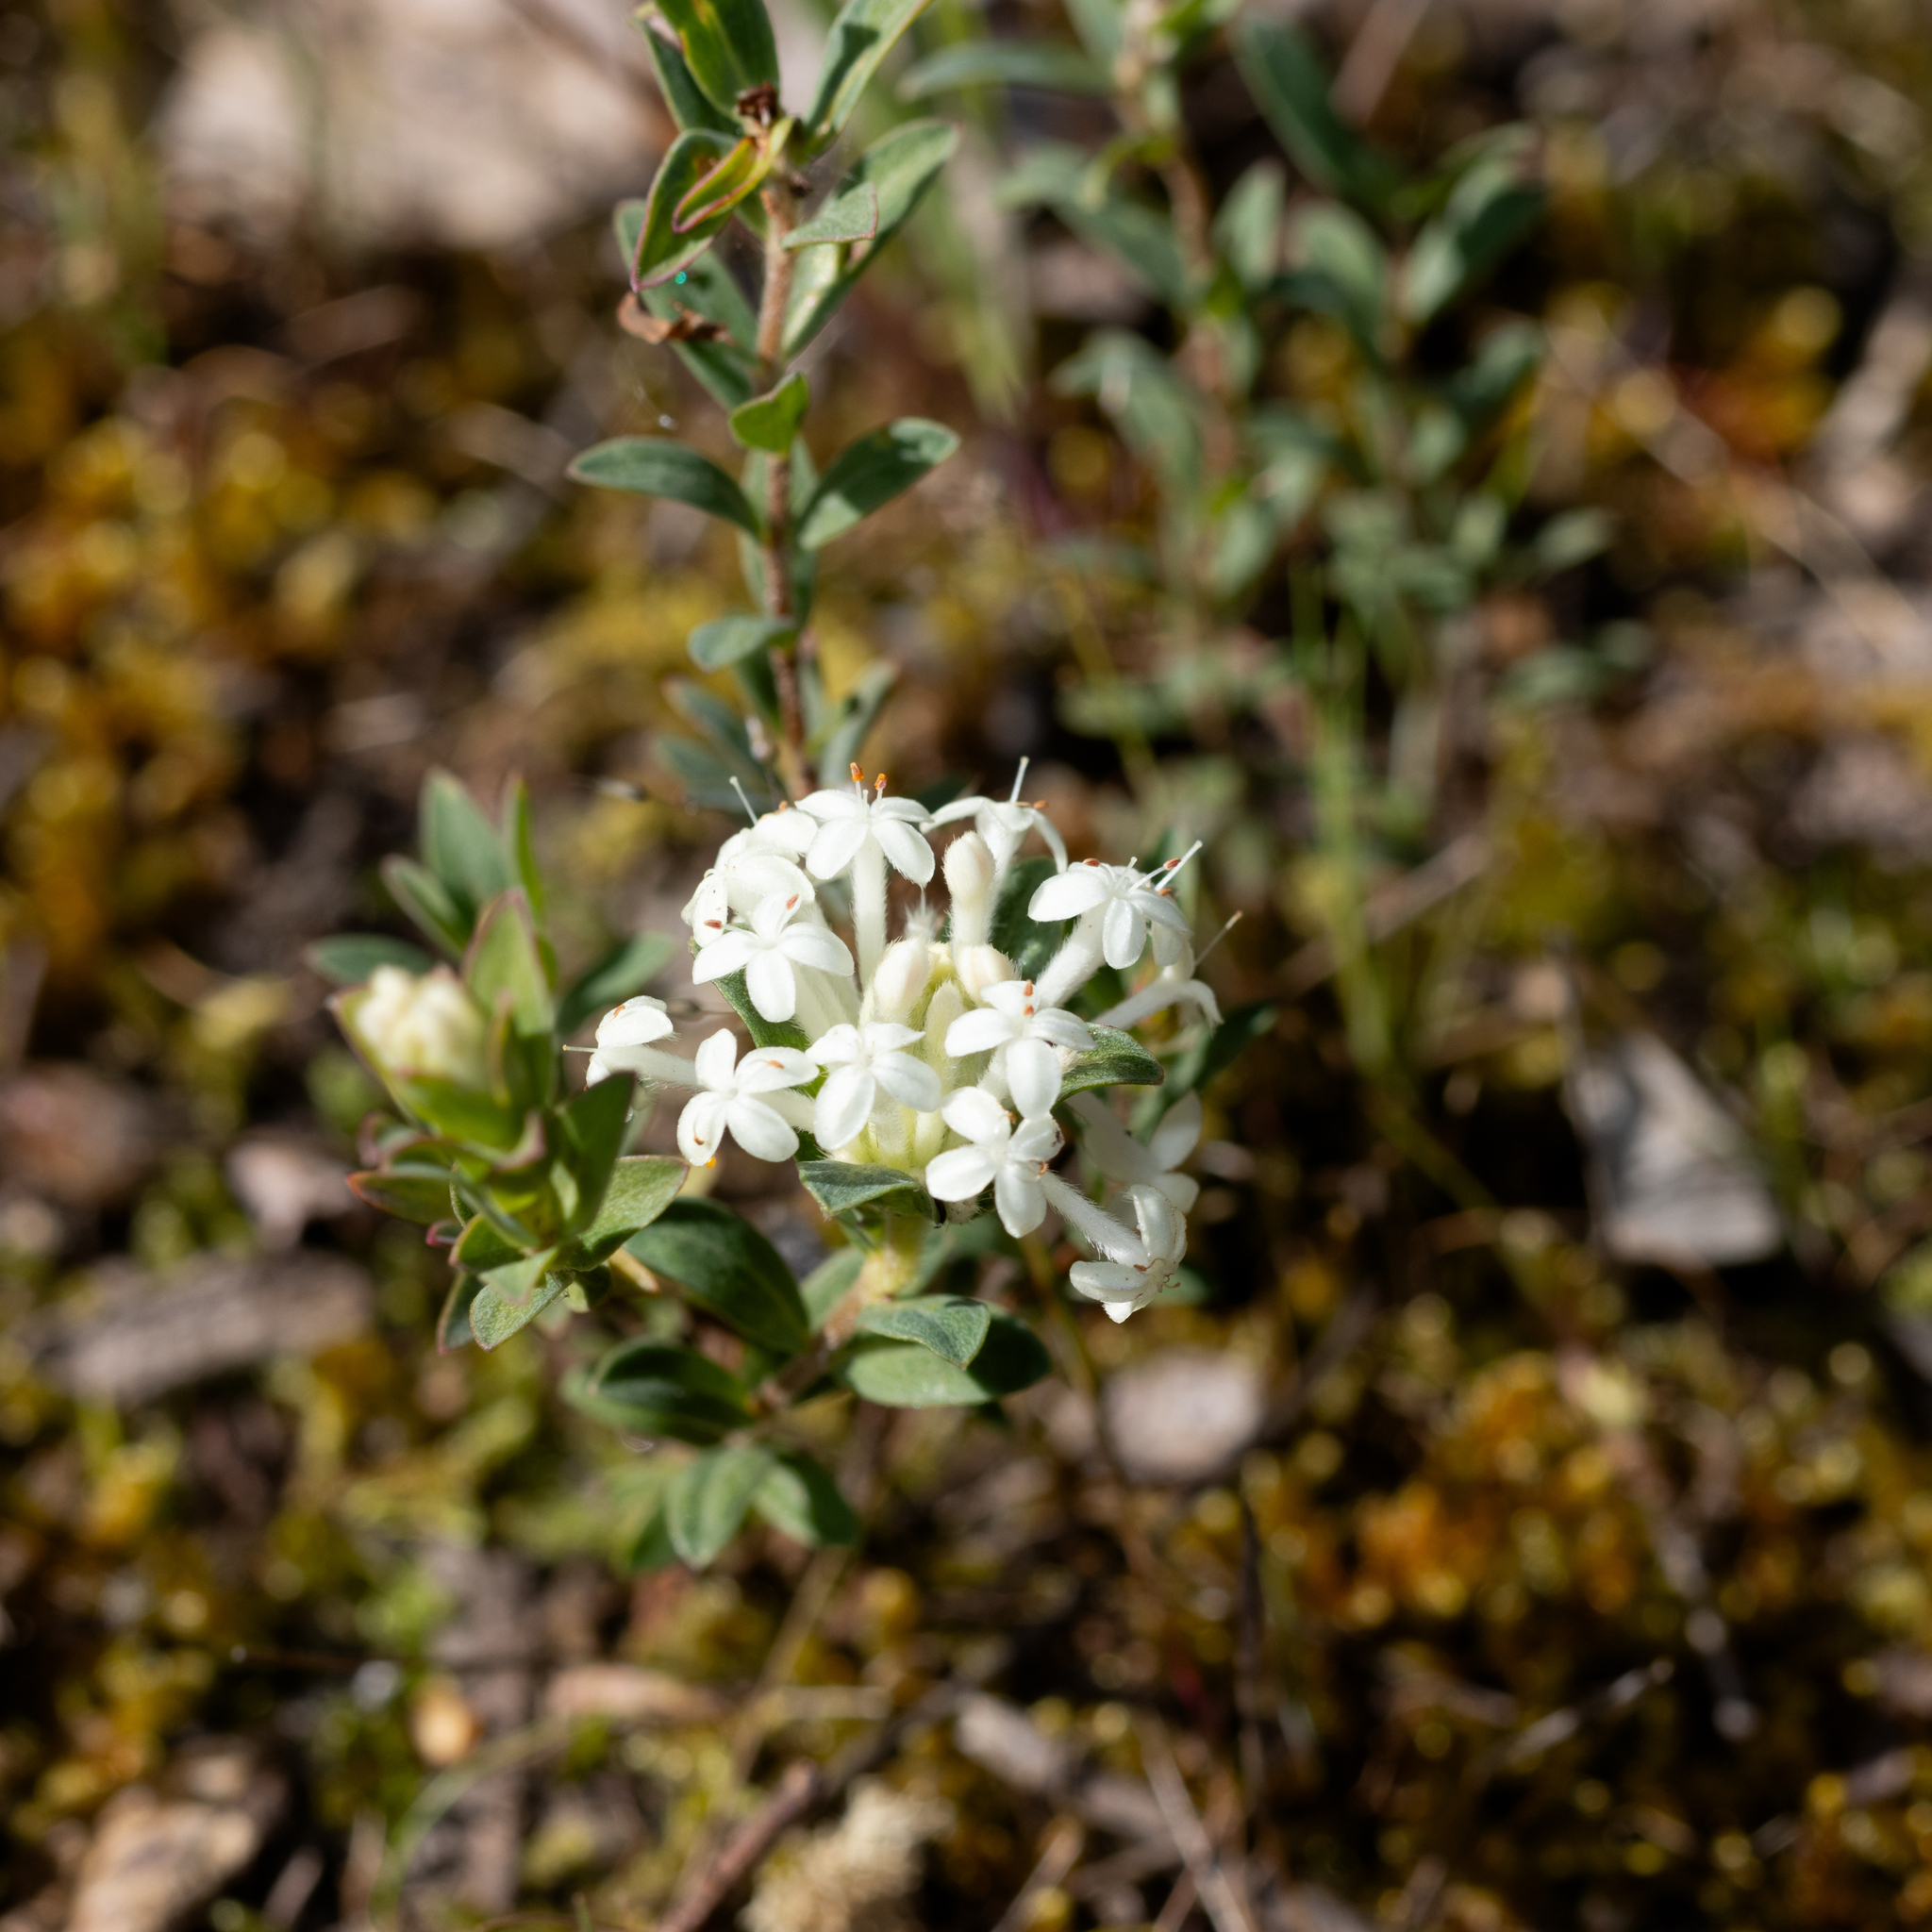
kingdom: Plantae
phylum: Tracheophyta
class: Magnoliopsida
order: Malvales
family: Thymelaeaceae
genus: Pimelea
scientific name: Pimelea humilis
